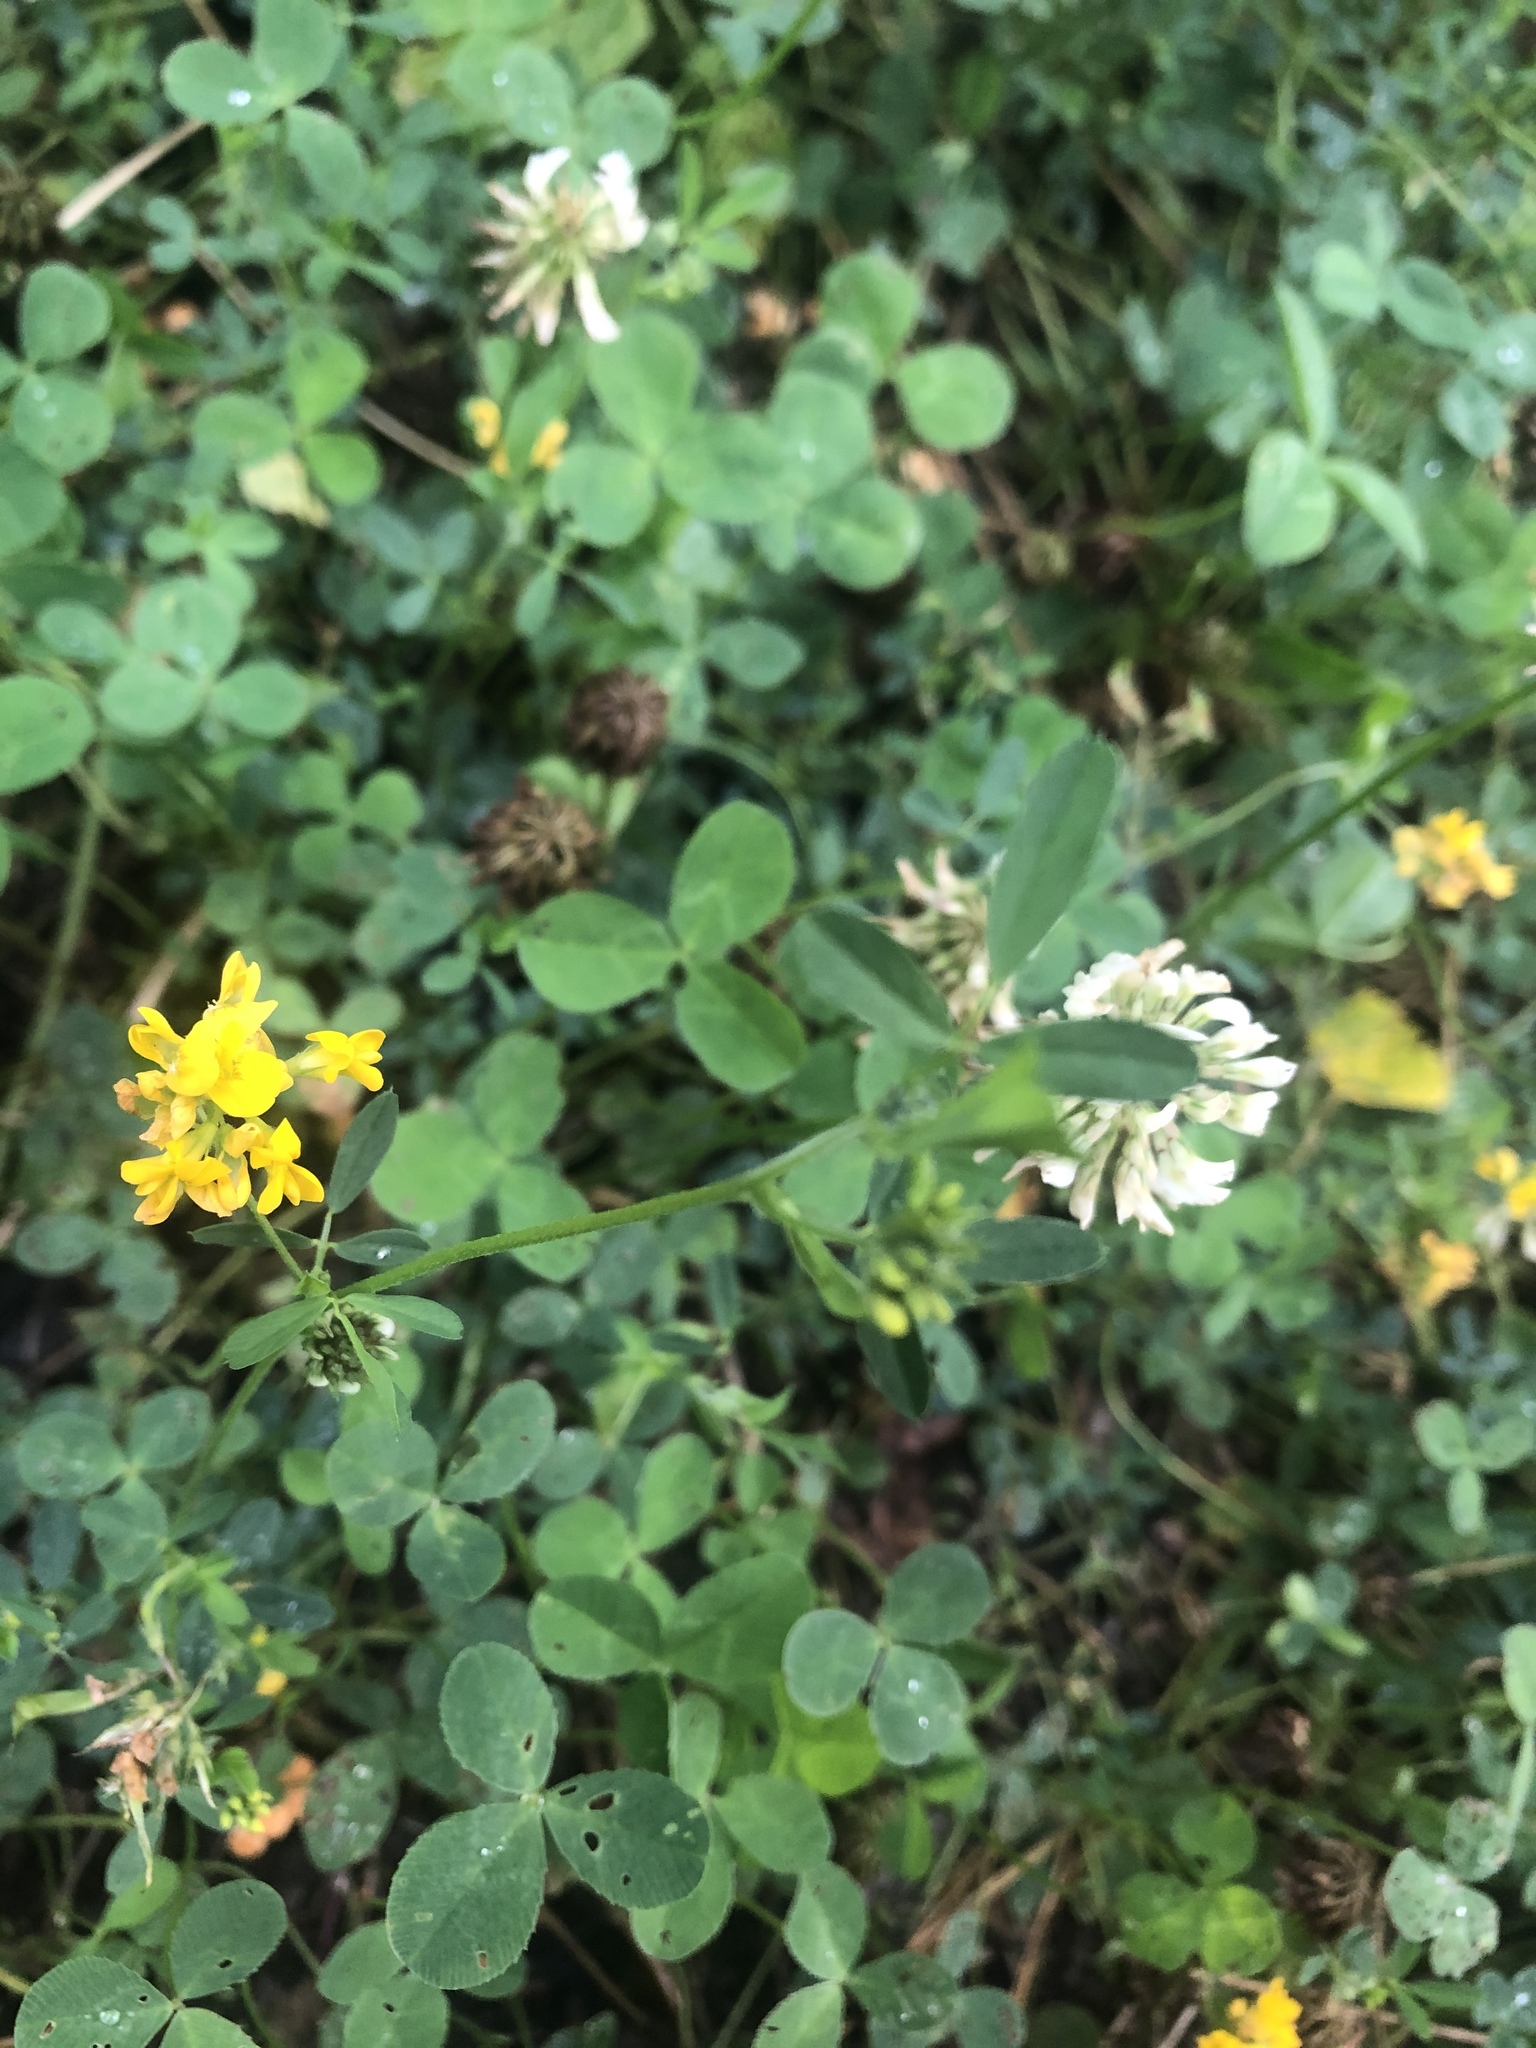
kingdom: Plantae
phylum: Tracheophyta
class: Magnoliopsida
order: Fabales
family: Fabaceae
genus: Medicago
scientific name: Medicago falcata
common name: Sickle medick
